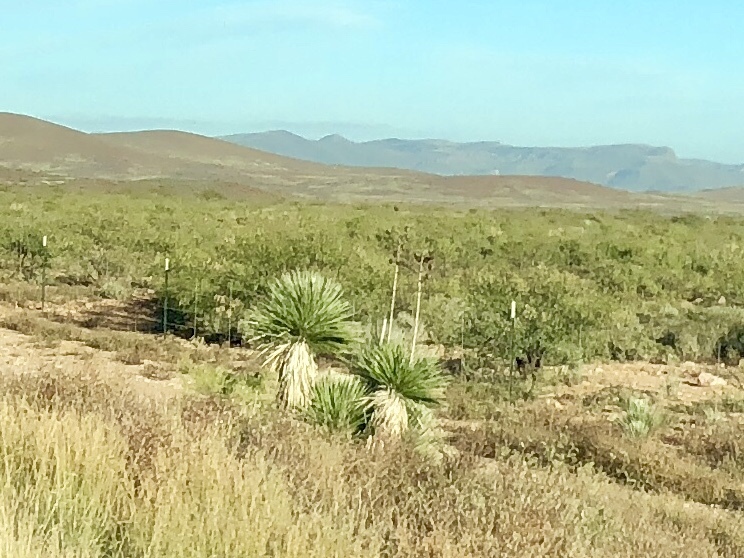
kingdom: Plantae
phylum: Tracheophyta
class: Liliopsida
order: Asparagales
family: Asparagaceae
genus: Yucca
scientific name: Yucca elata
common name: Palmella
